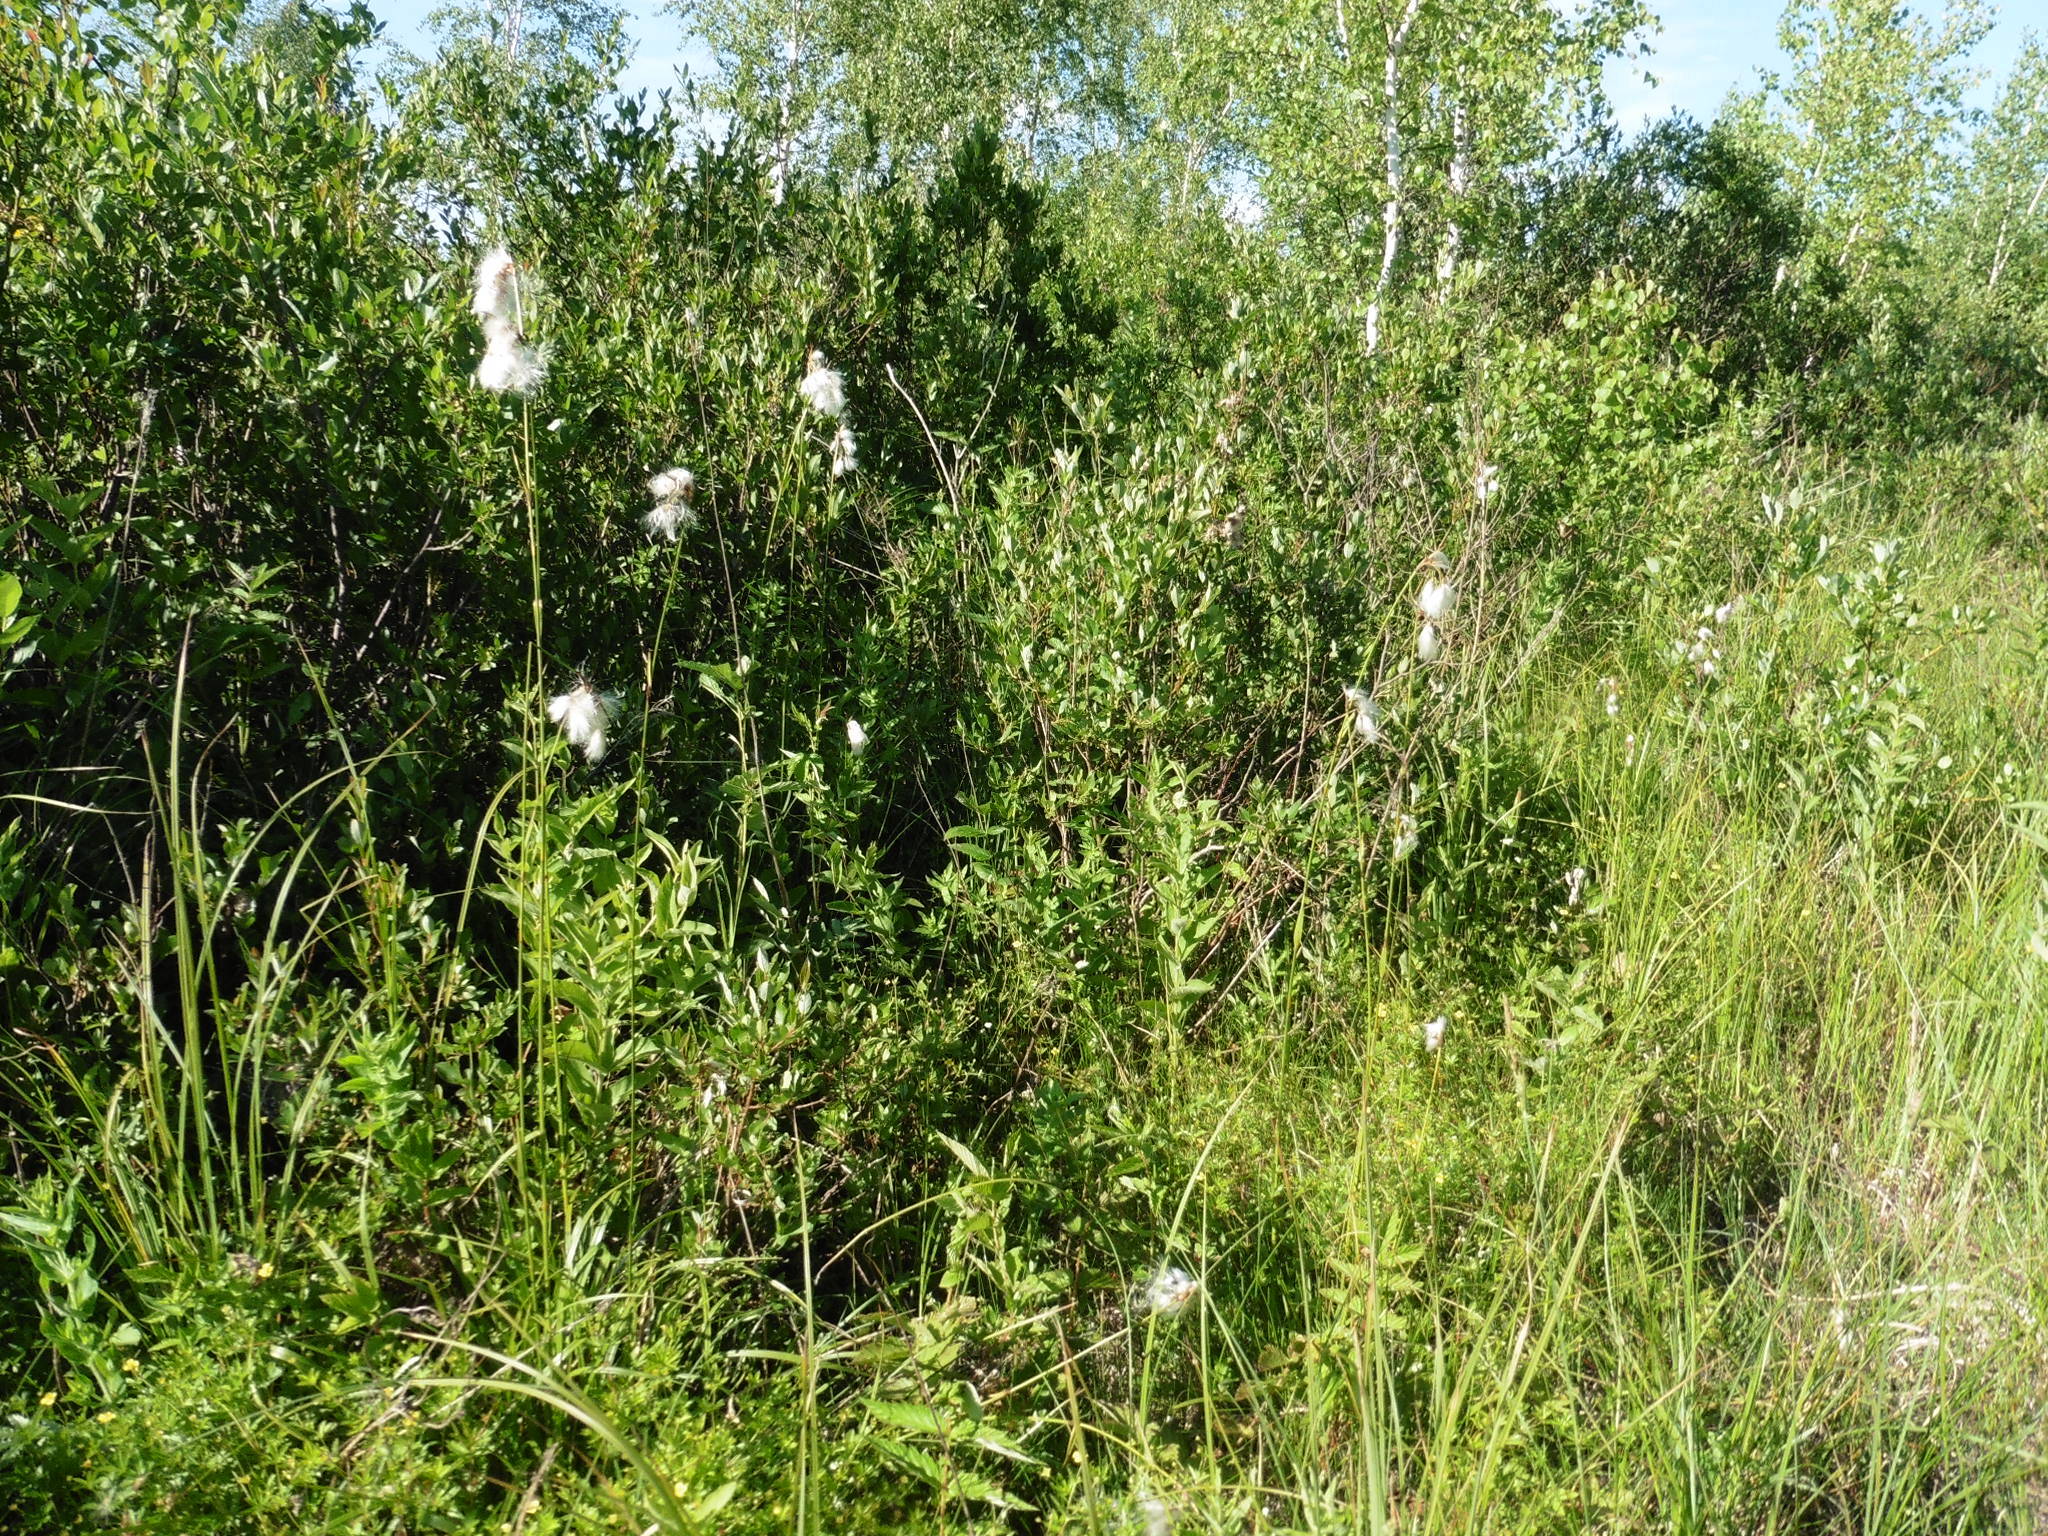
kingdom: Plantae
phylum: Tracheophyta
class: Liliopsida
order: Poales
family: Cyperaceae
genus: Eriophorum
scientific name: Eriophorum latifolium
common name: Broad-leaved cottongrass
